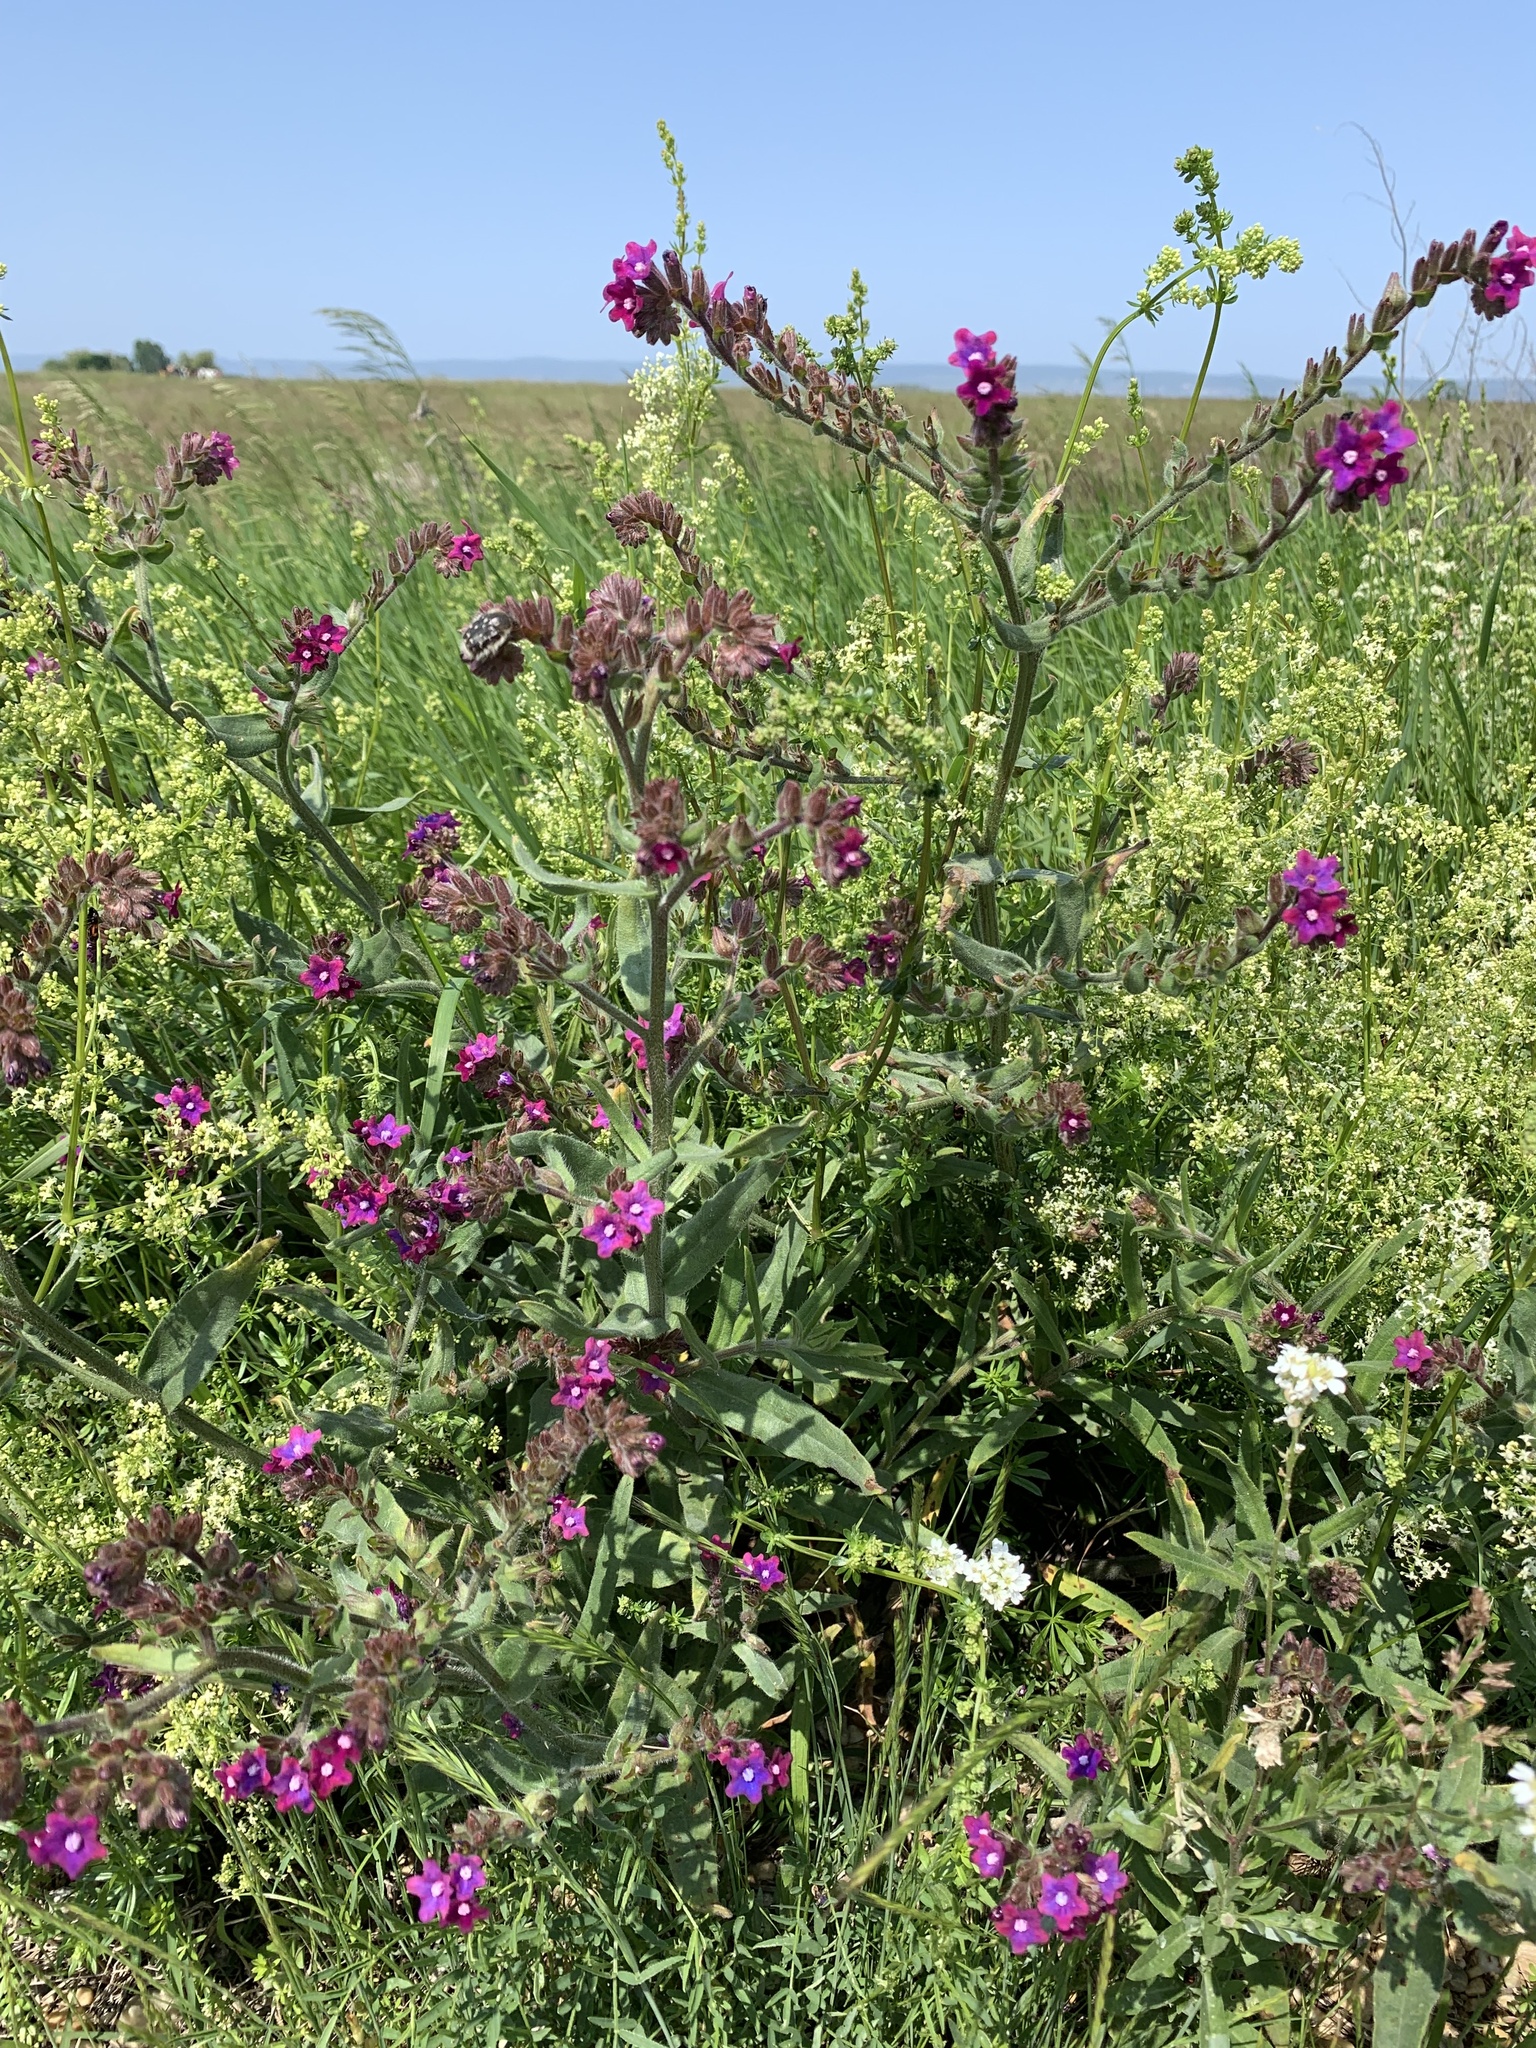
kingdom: Plantae
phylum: Tracheophyta
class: Magnoliopsida
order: Boraginales
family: Boraginaceae
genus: Anchusa
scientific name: Anchusa officinalis
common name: Alkanet
